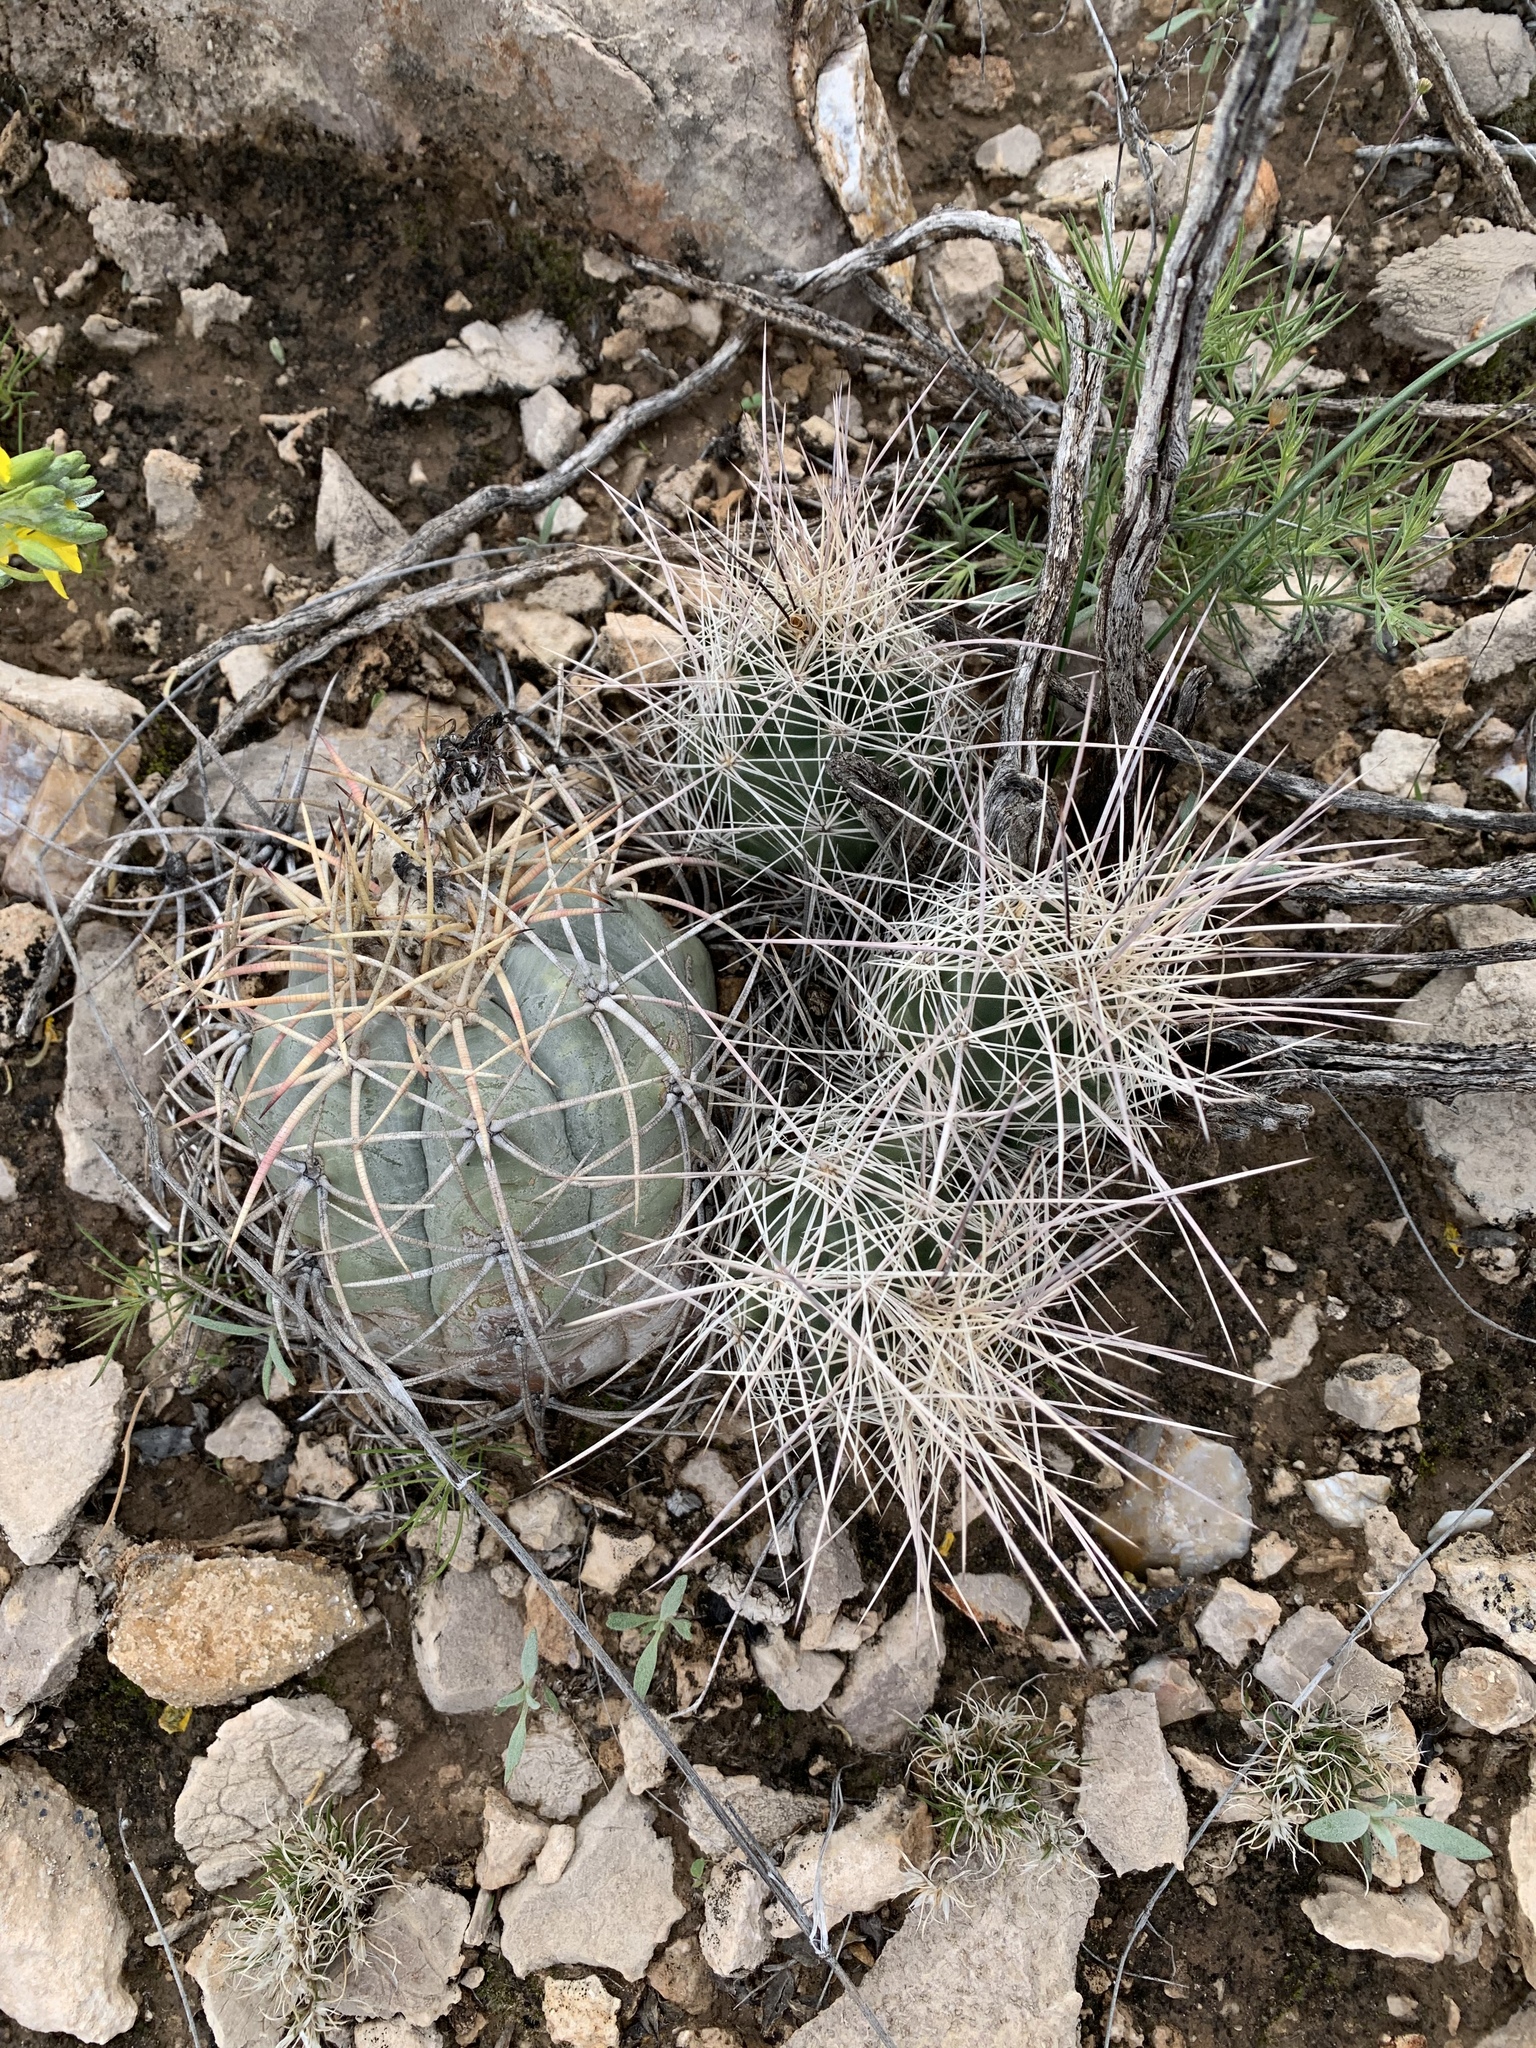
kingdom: Plantae
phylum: Tracheophyta
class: Magnoliopsida
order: Caryophyllales
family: Cactaceae
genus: Coryphantha
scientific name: Coryphantha macromeris
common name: Nipple beehive cactus
